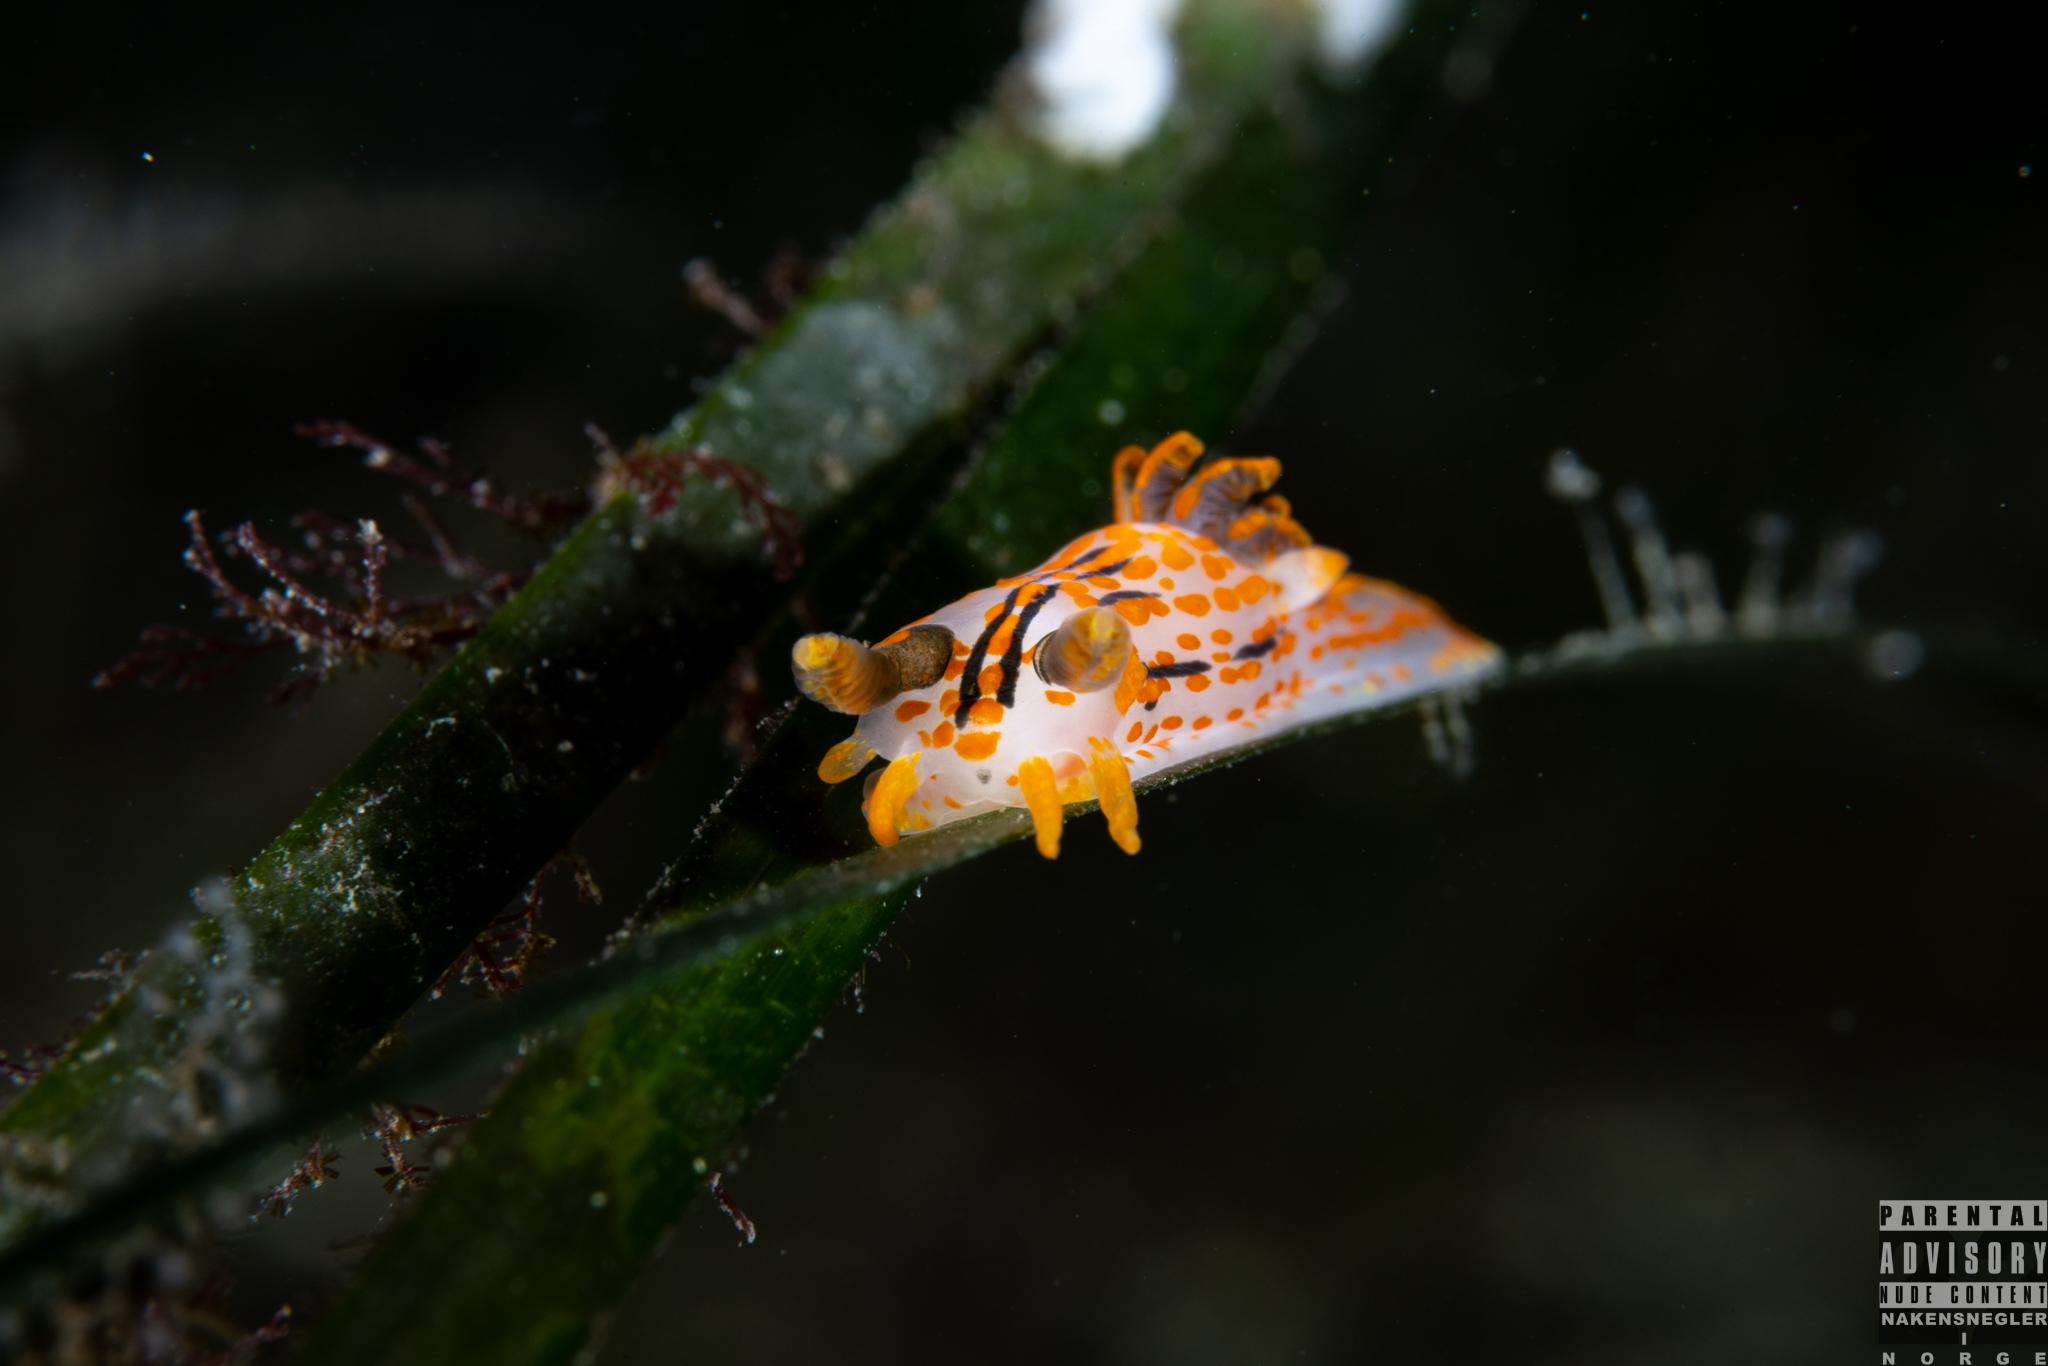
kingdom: Animalia
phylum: Mollusca
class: Gastropoda
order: Nudibranchia
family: Polyceridae
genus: Polycera
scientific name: Polycera quadrilineata
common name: Four-striped polycera
